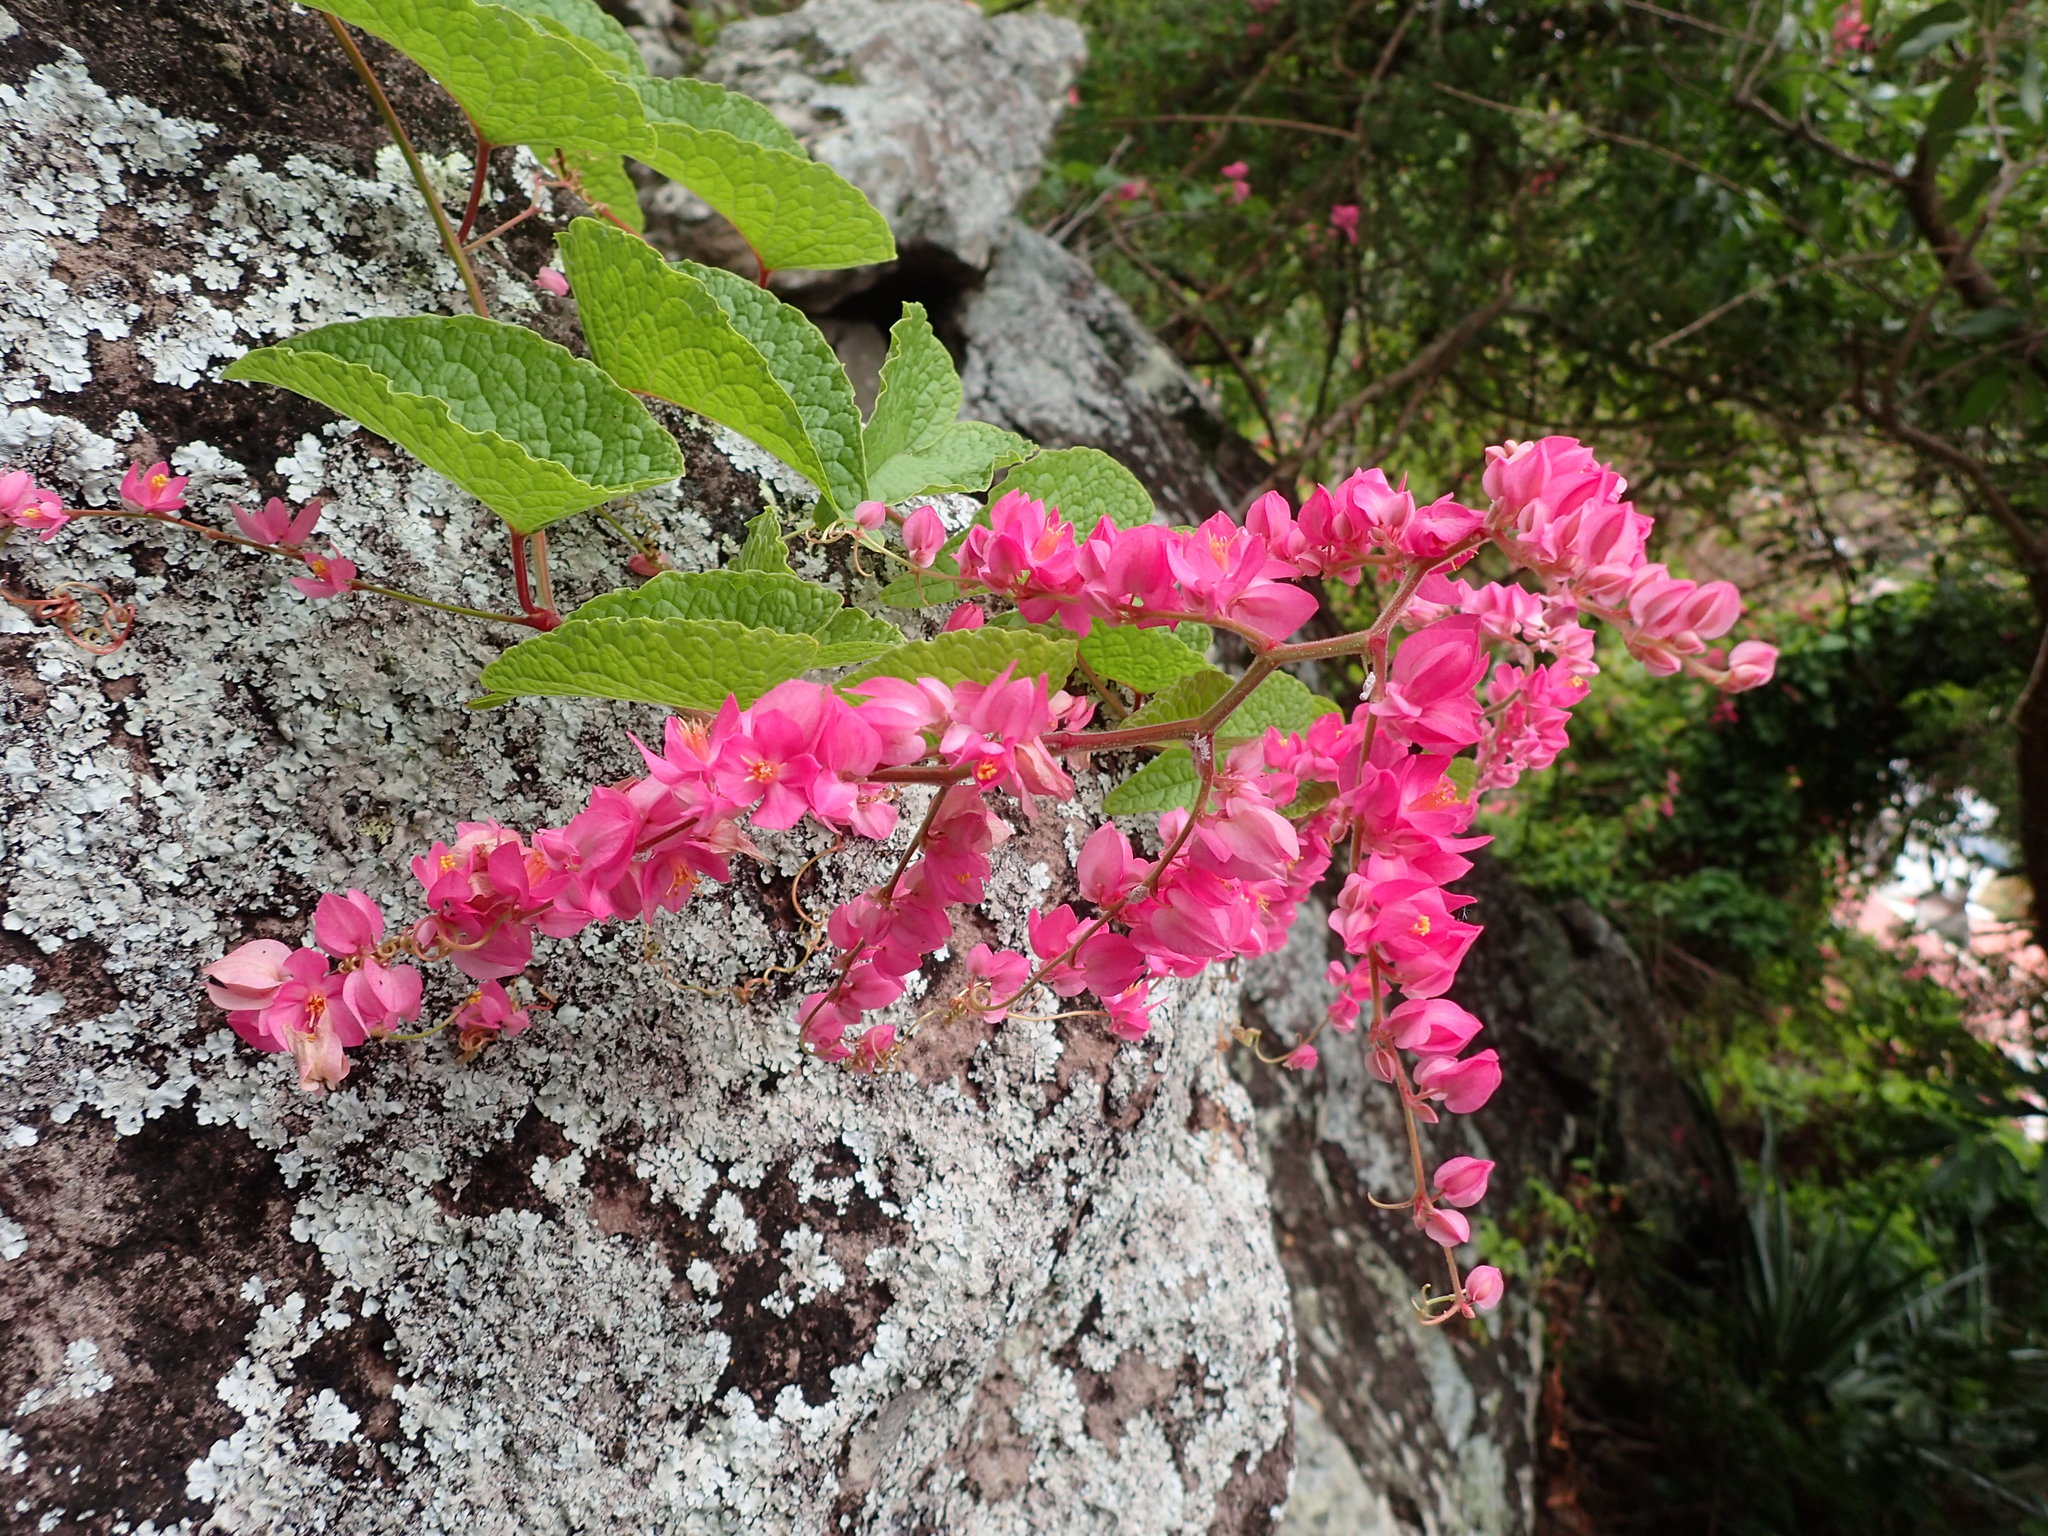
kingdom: Plantae
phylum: Tracheophyta
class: Magnoliopsida
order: Caryophyllales
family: Polygonaceae
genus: Antigonon
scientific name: Antigonon leptopus
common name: Coral vine
